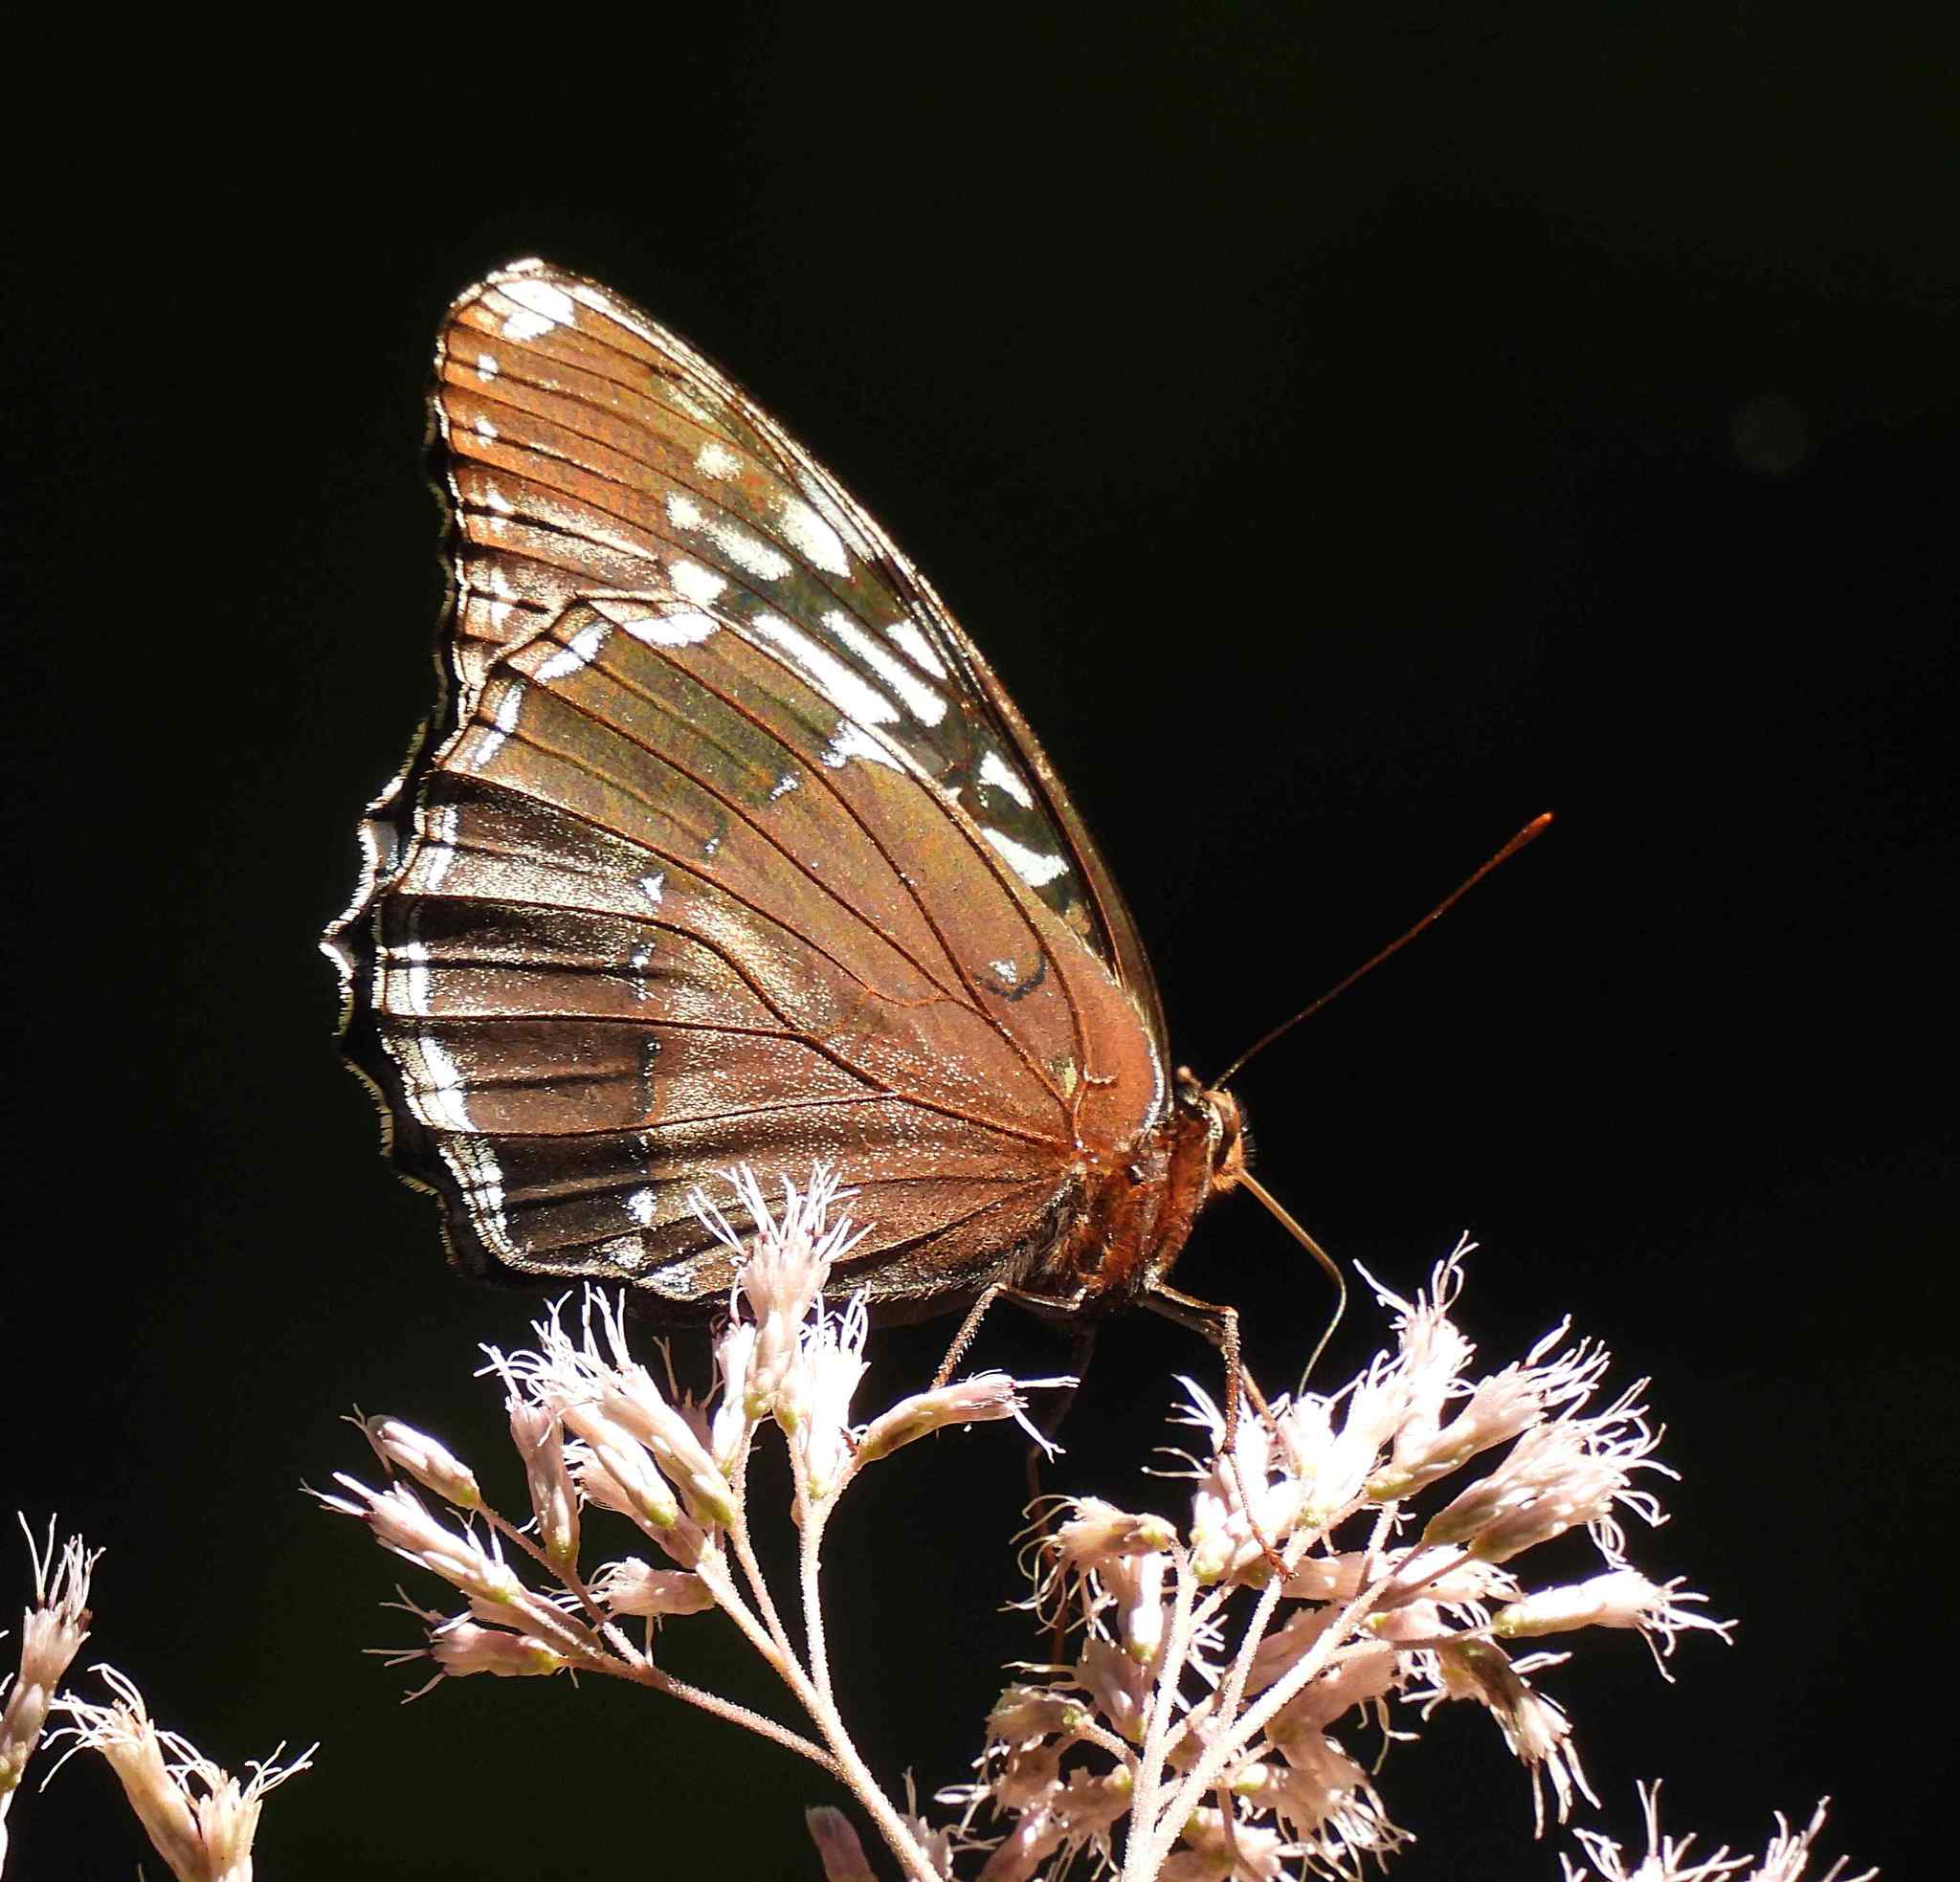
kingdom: Animalia
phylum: Arthropoda
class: Insecta
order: Lepidoptera
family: Nymphalidae
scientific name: Nymphalidae
